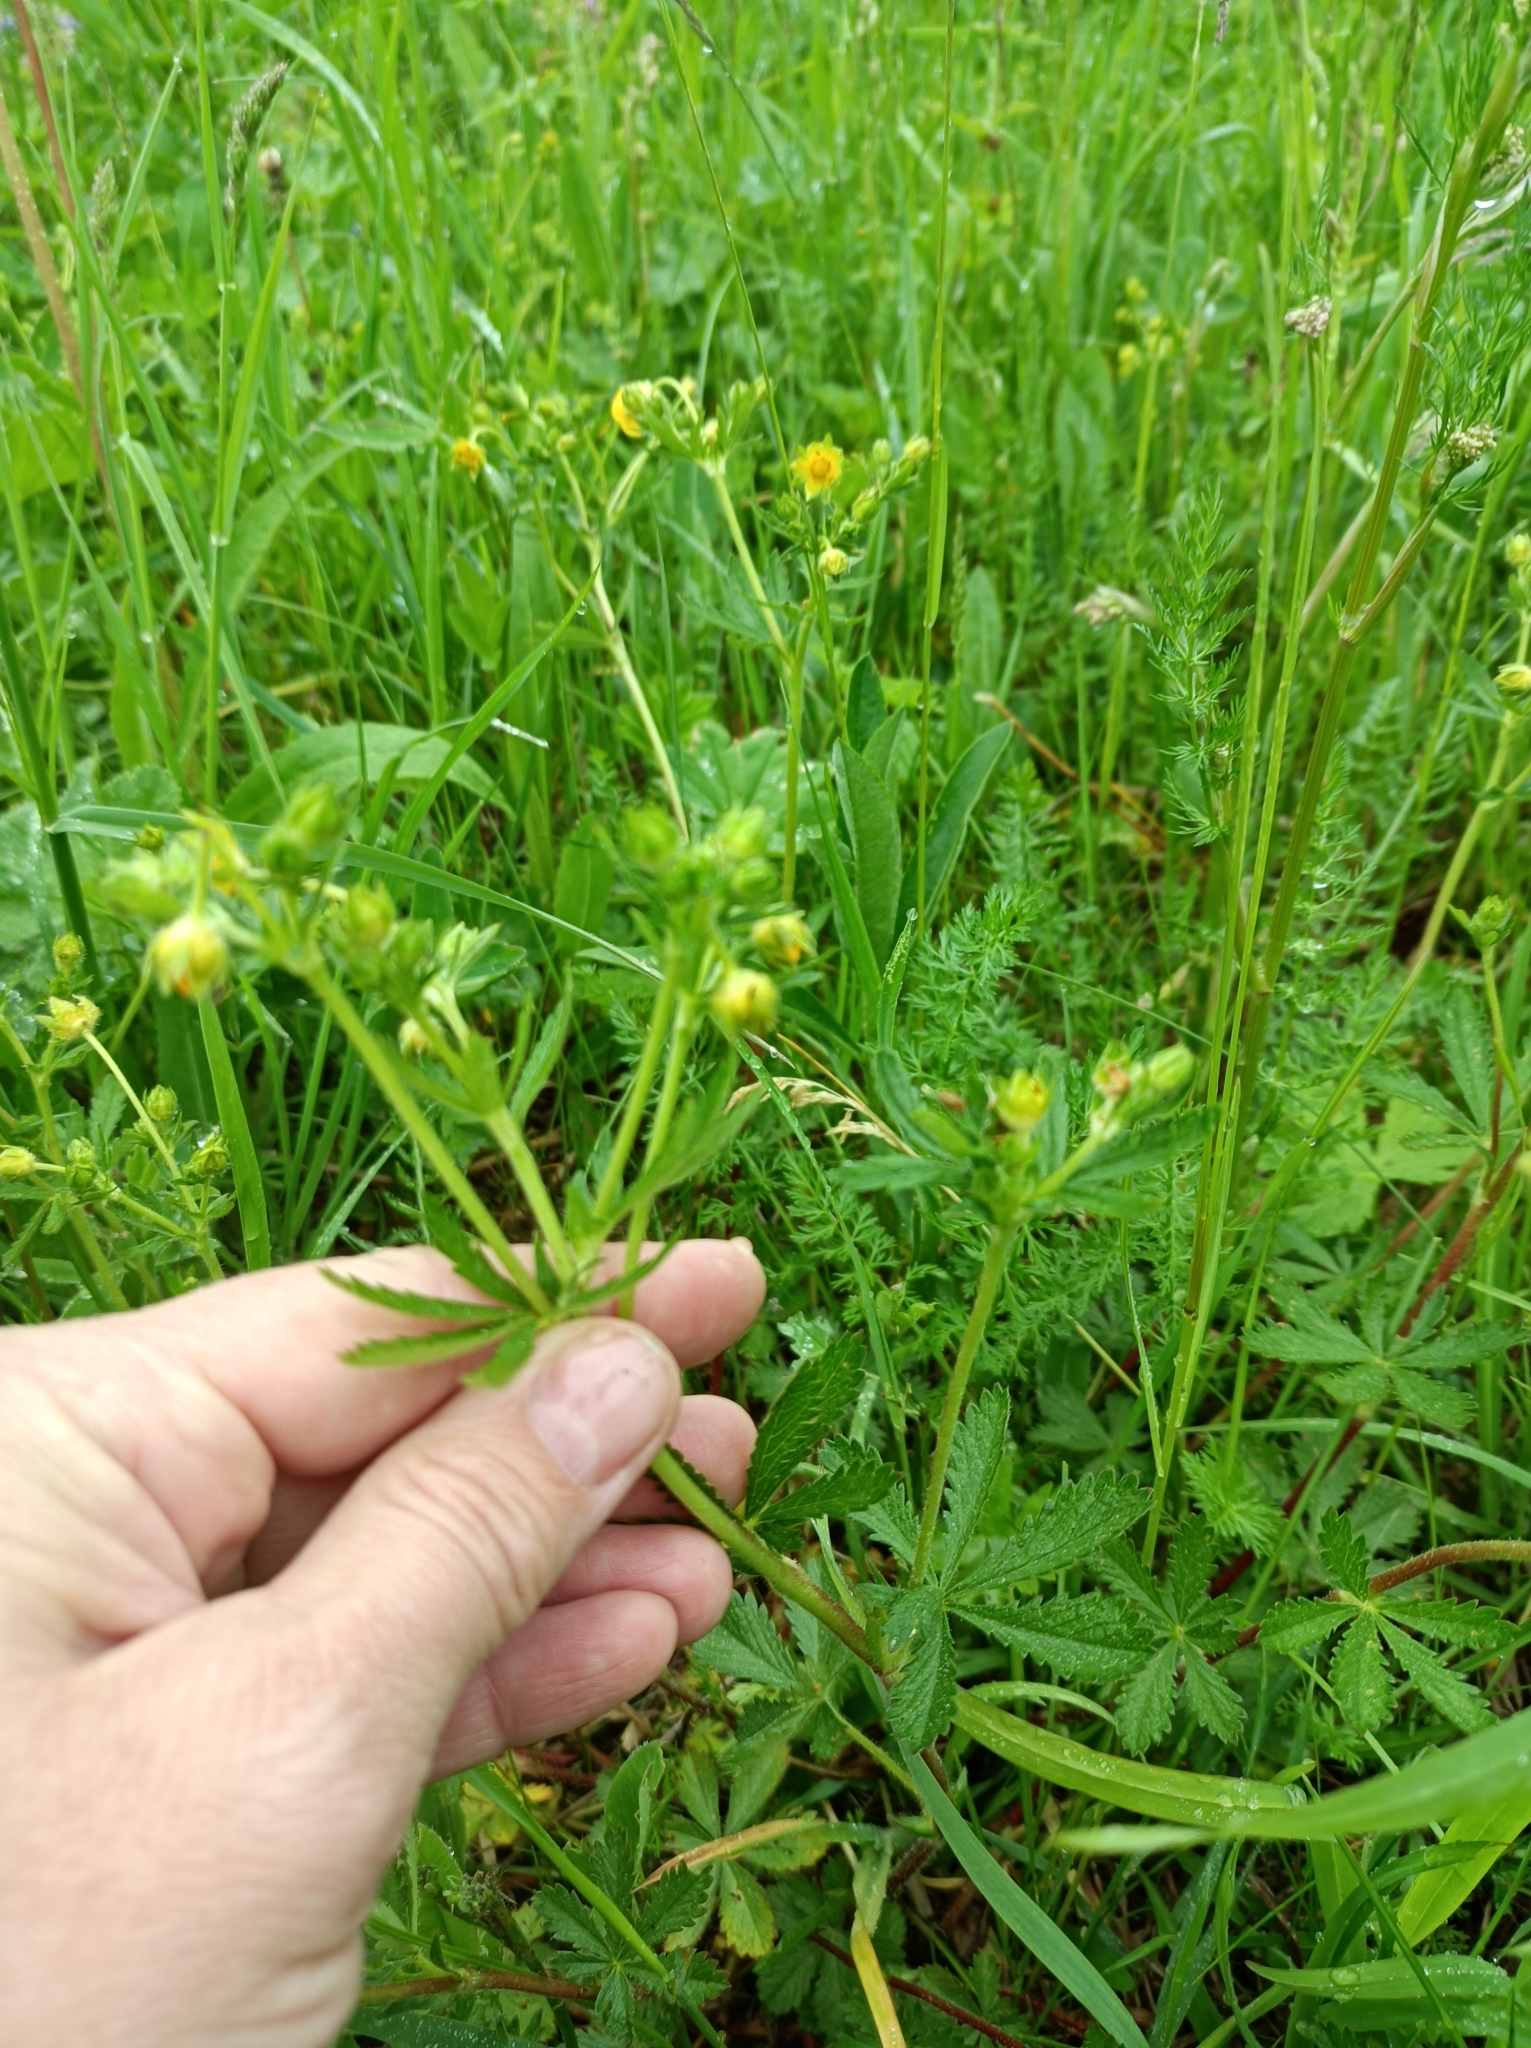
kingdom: Plantae
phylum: Tracheophyta
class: Magnoliopsida
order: Rosales
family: Rosaceae
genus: Potentilla
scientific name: Potentilla thuringiaca
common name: European cinquefoil
